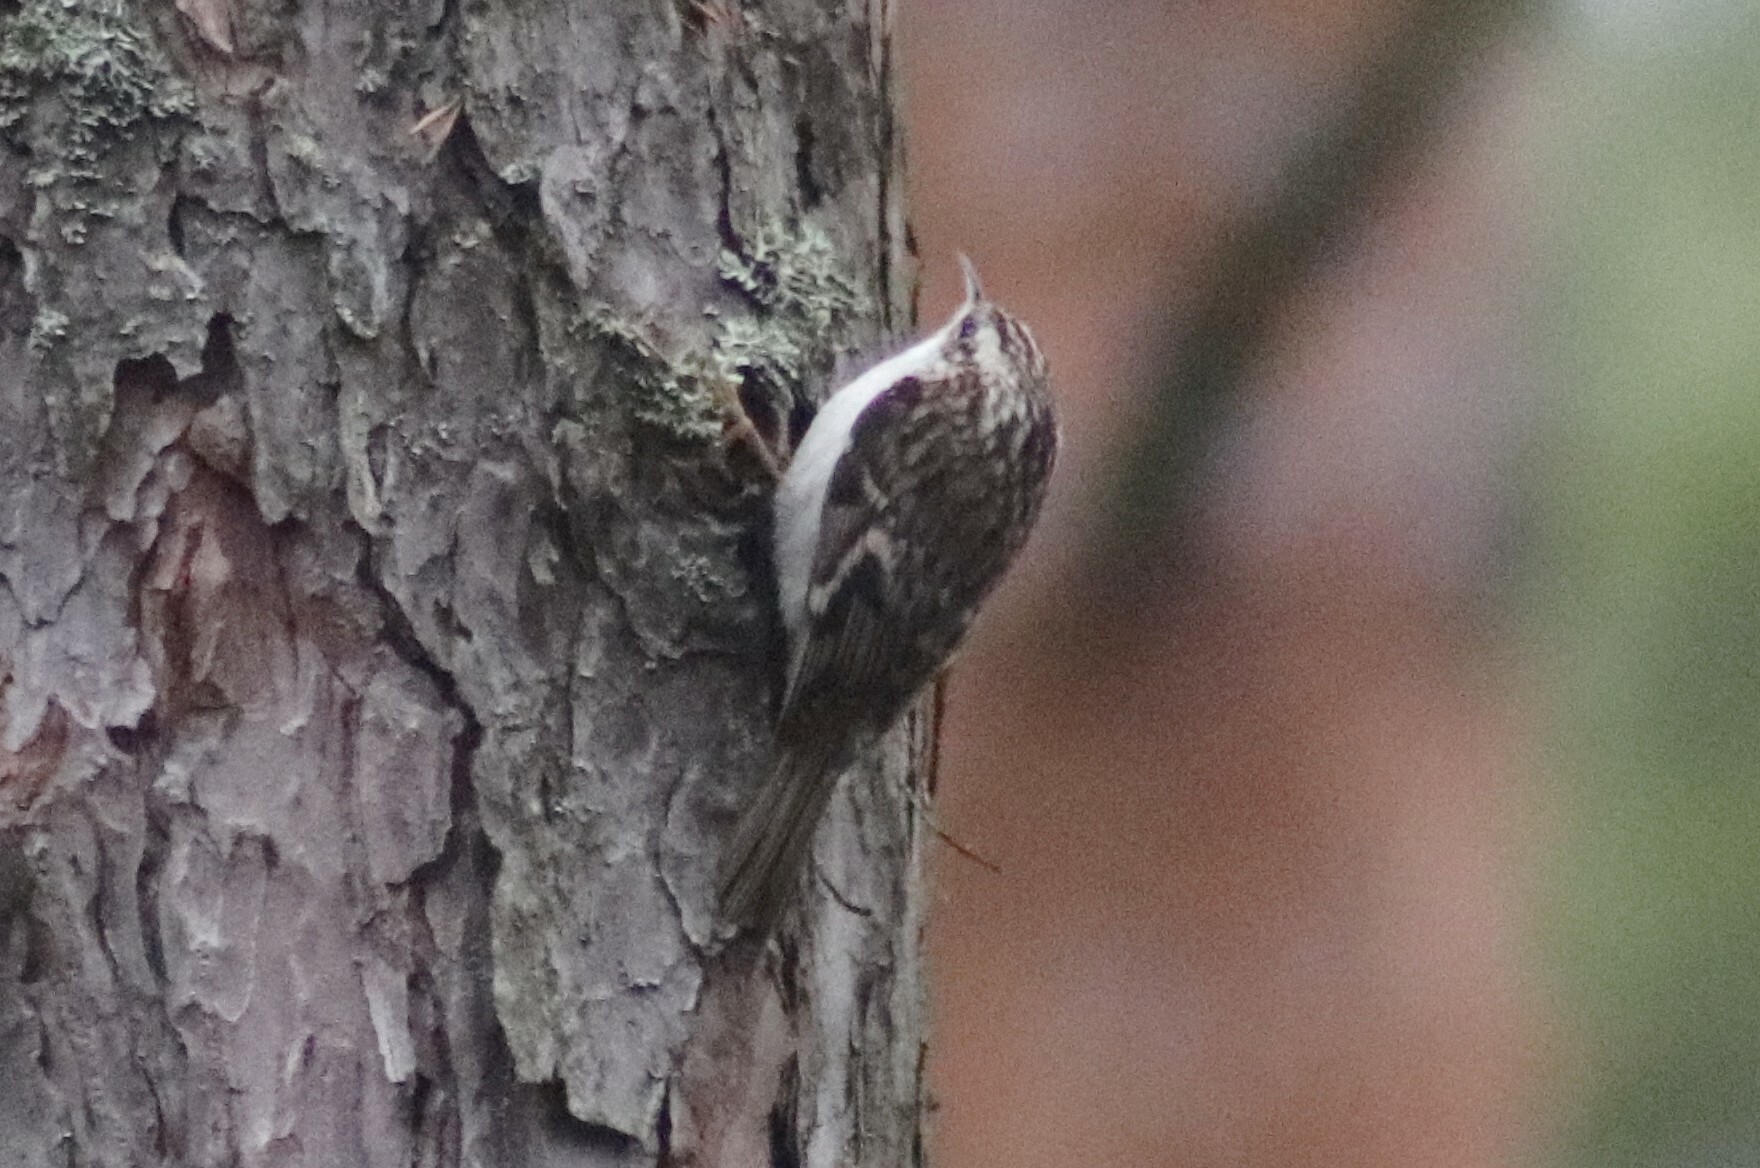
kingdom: Animalia
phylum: Chordata
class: Aves
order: Passeriformes
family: Certhiidae
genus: Certhia
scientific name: Certhia familiaris
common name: Eurasian treecreeper
